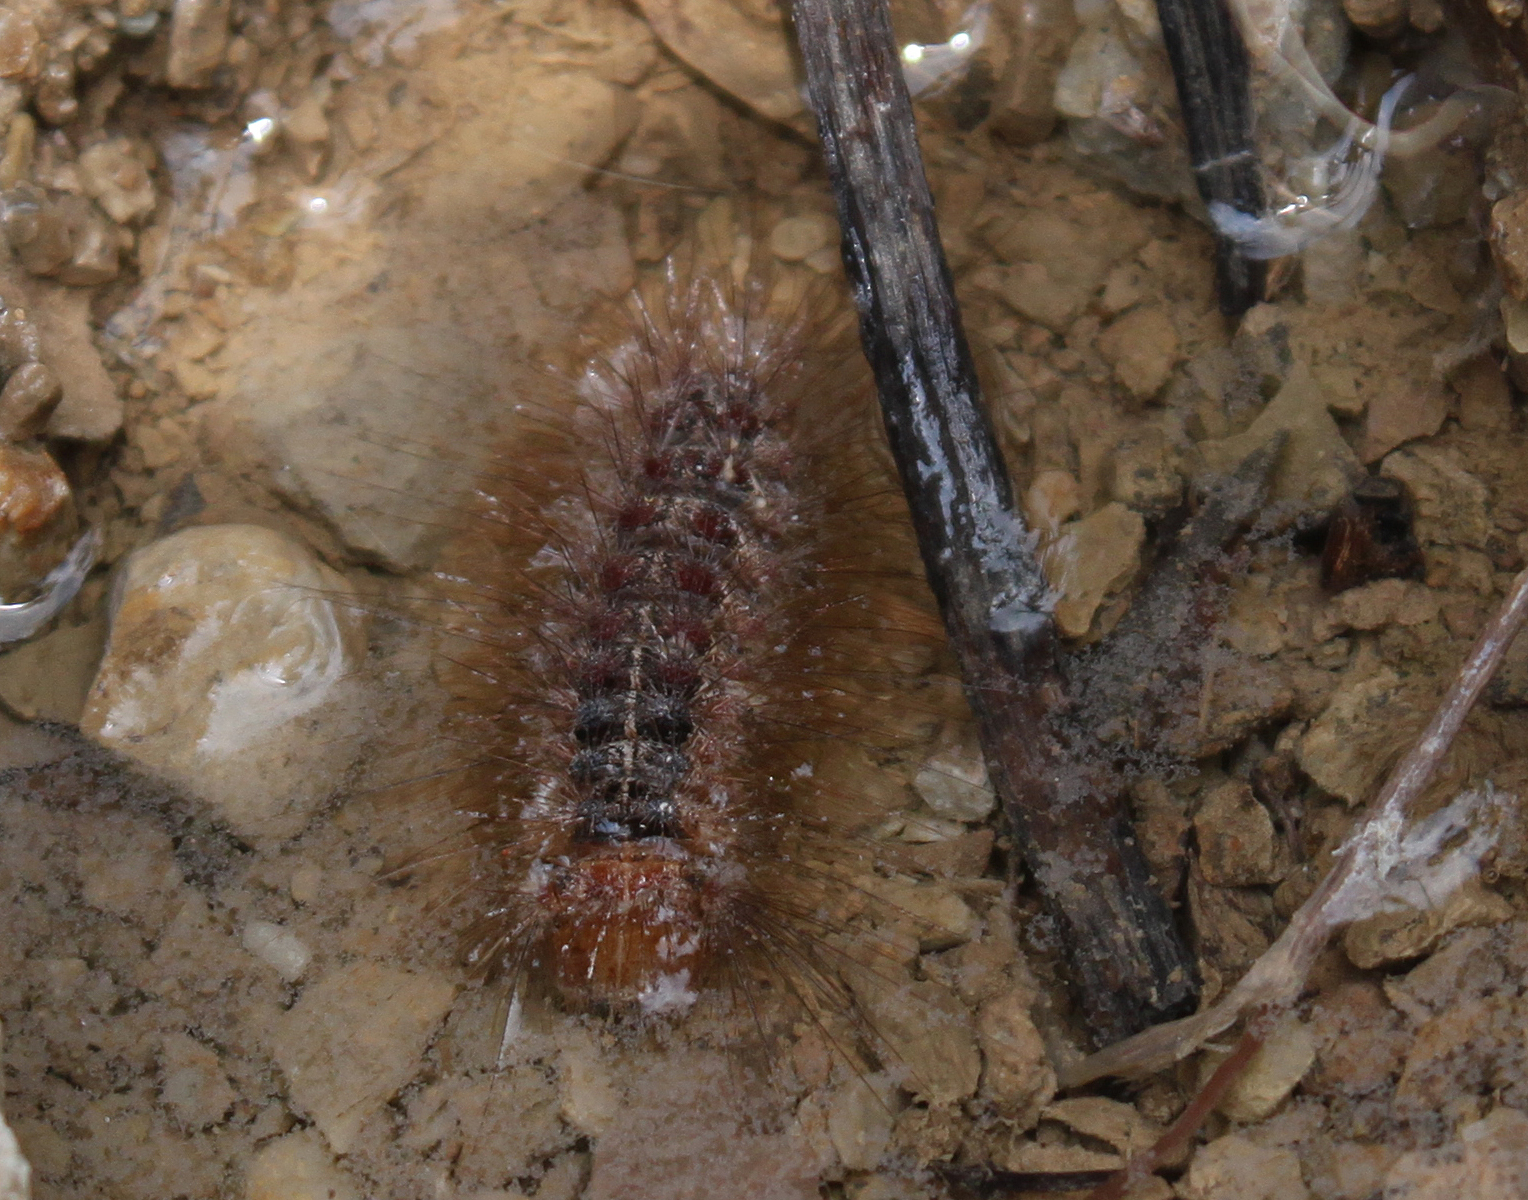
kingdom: Animalia
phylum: Arthropoda
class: Insecta
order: Lepidoptera
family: Erebidae
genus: Lymantria
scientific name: Lymantria dispar
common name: Gypsy moth
